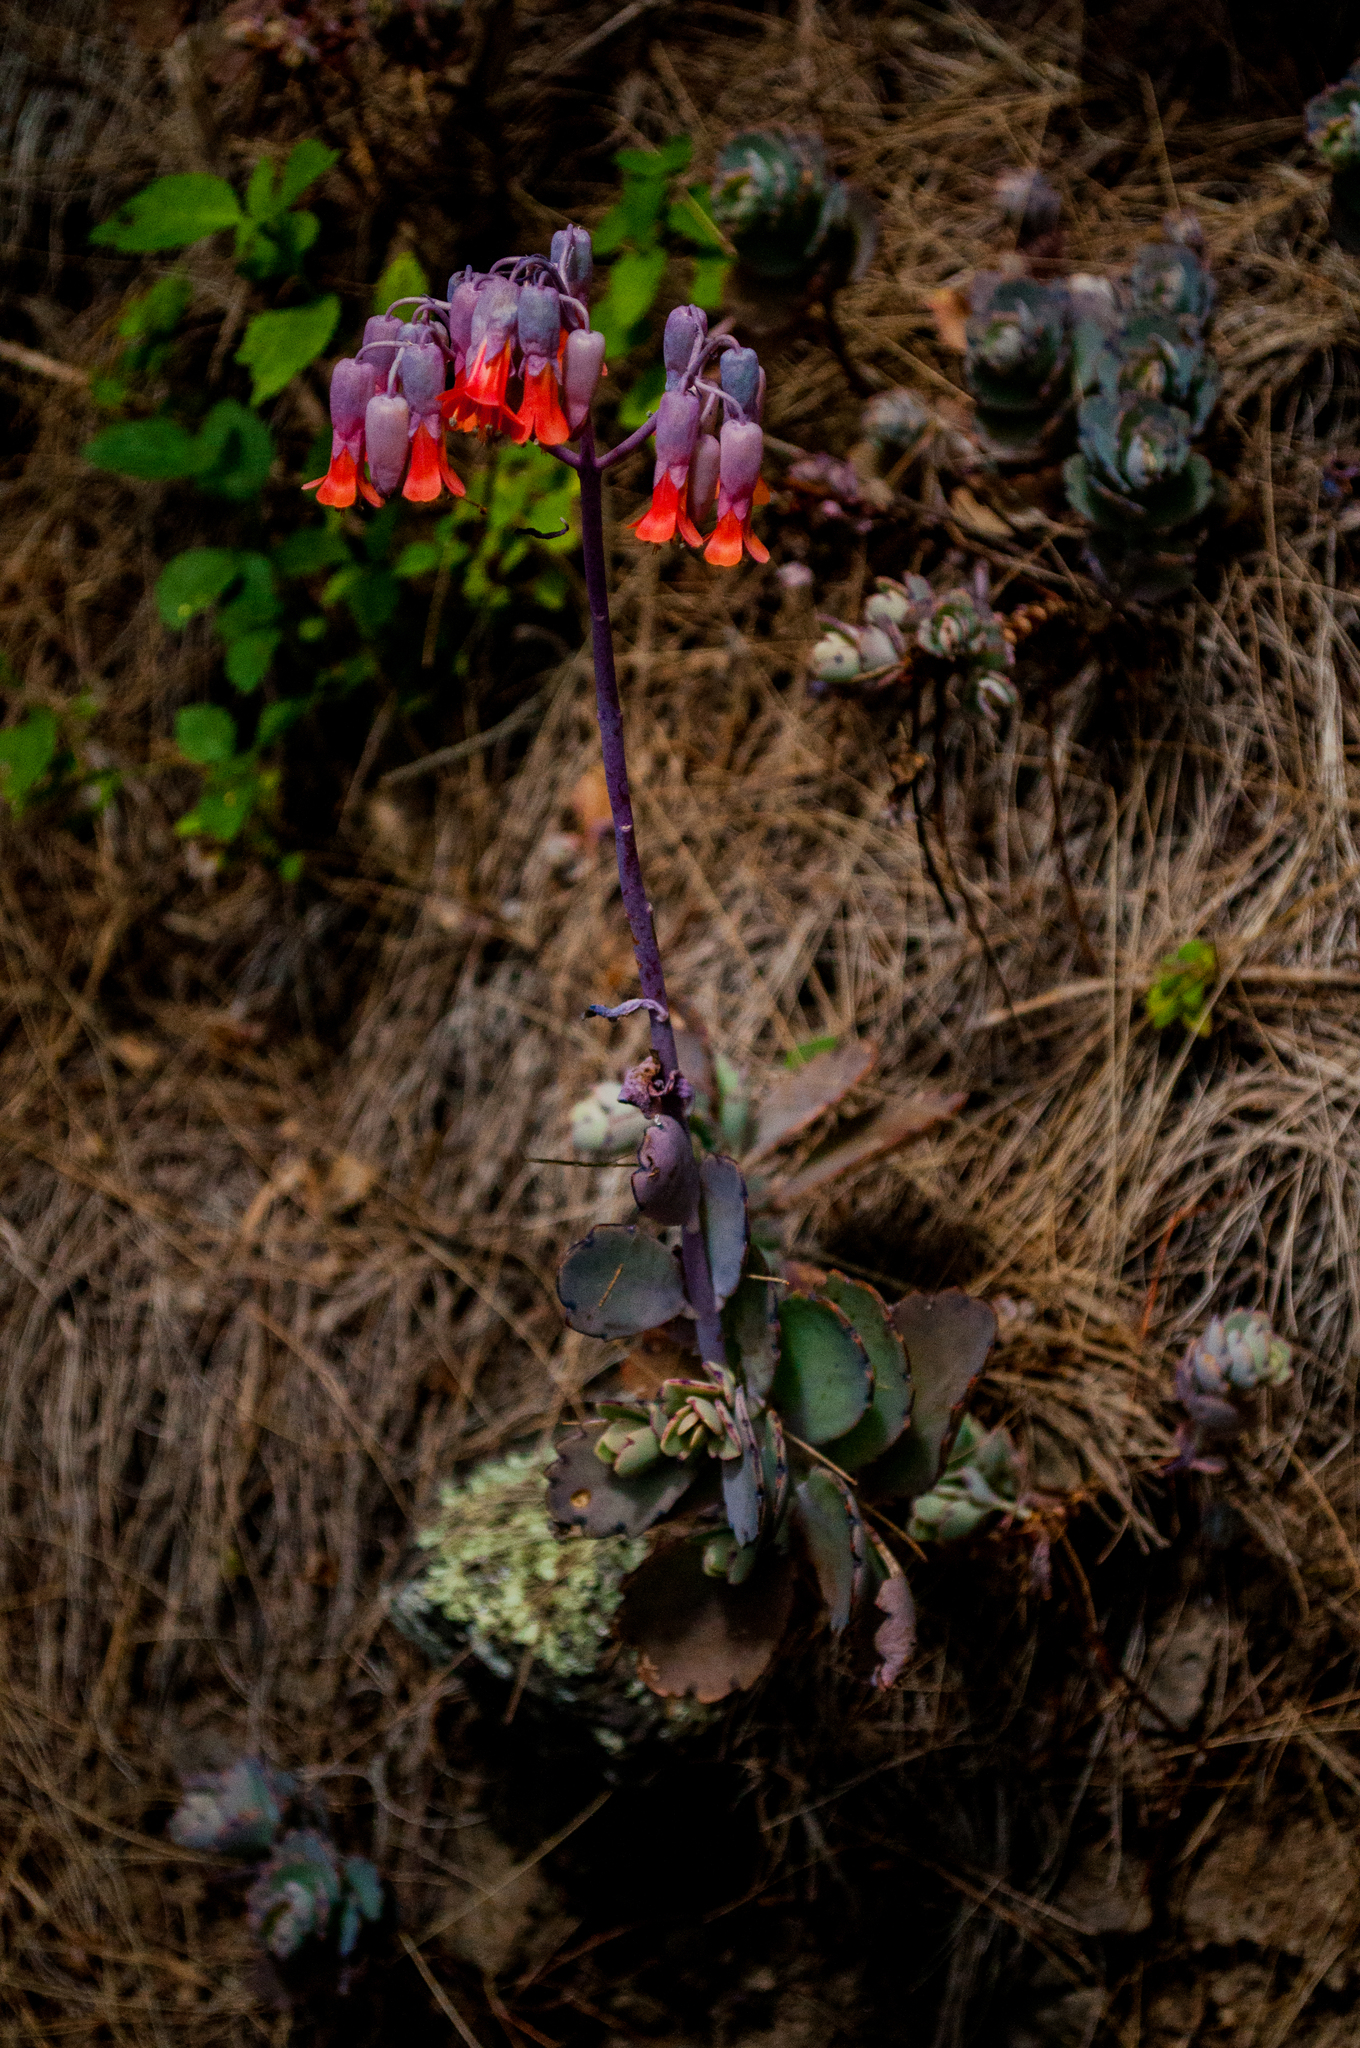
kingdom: Plantae
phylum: Tracheophyta
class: Magnoliopsida
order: Saxifragales
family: Crassulaceae
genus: Kalanchoe
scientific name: Kalanchoe fedtschenkoi
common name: Lavender scallops
